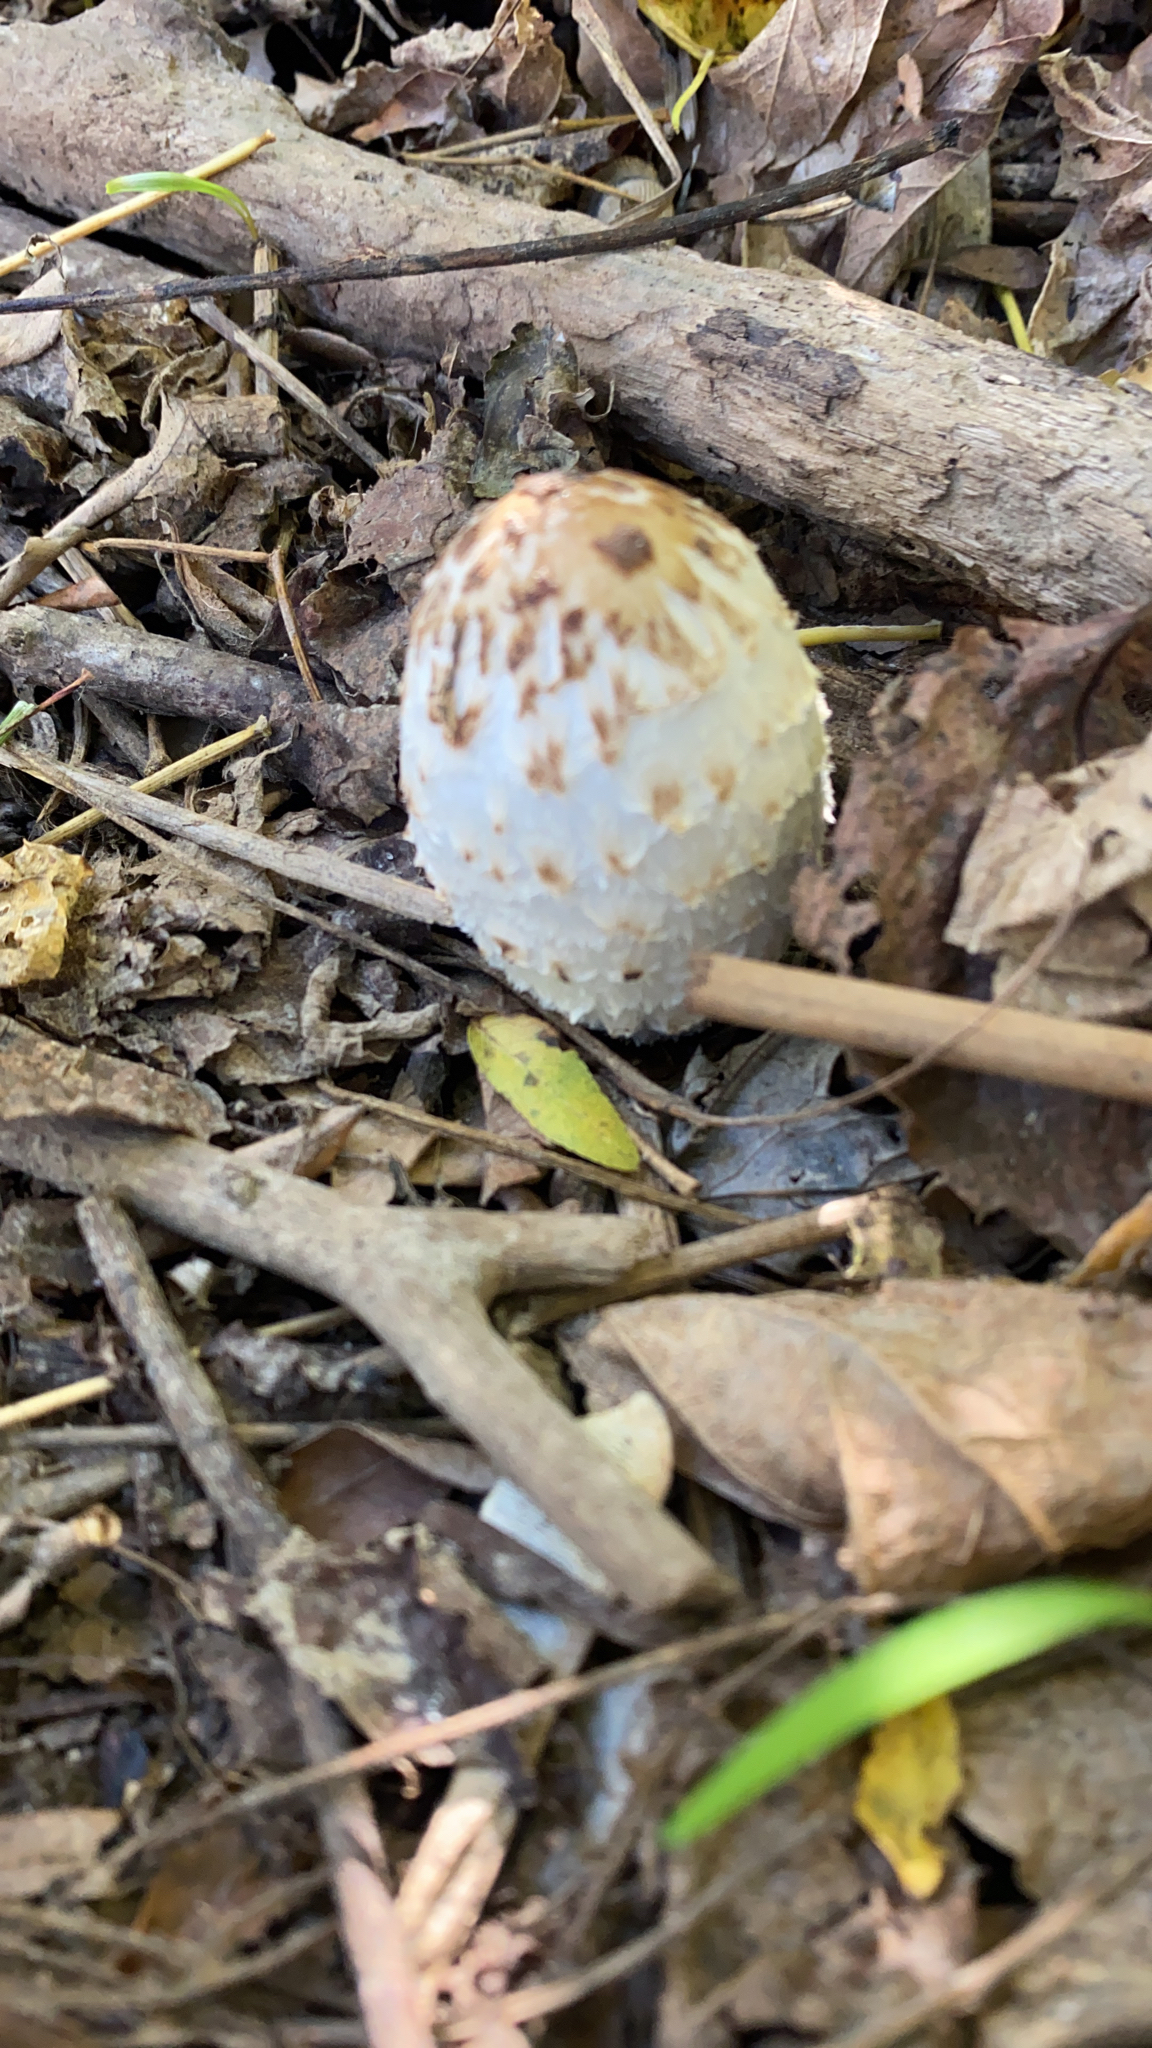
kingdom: Fungi
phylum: Basidiomycota
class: Agaricomycetes
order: Agaricales
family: Agaricaceae
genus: Coprinus
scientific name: Coprinus comatus
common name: Lawyer's wig
